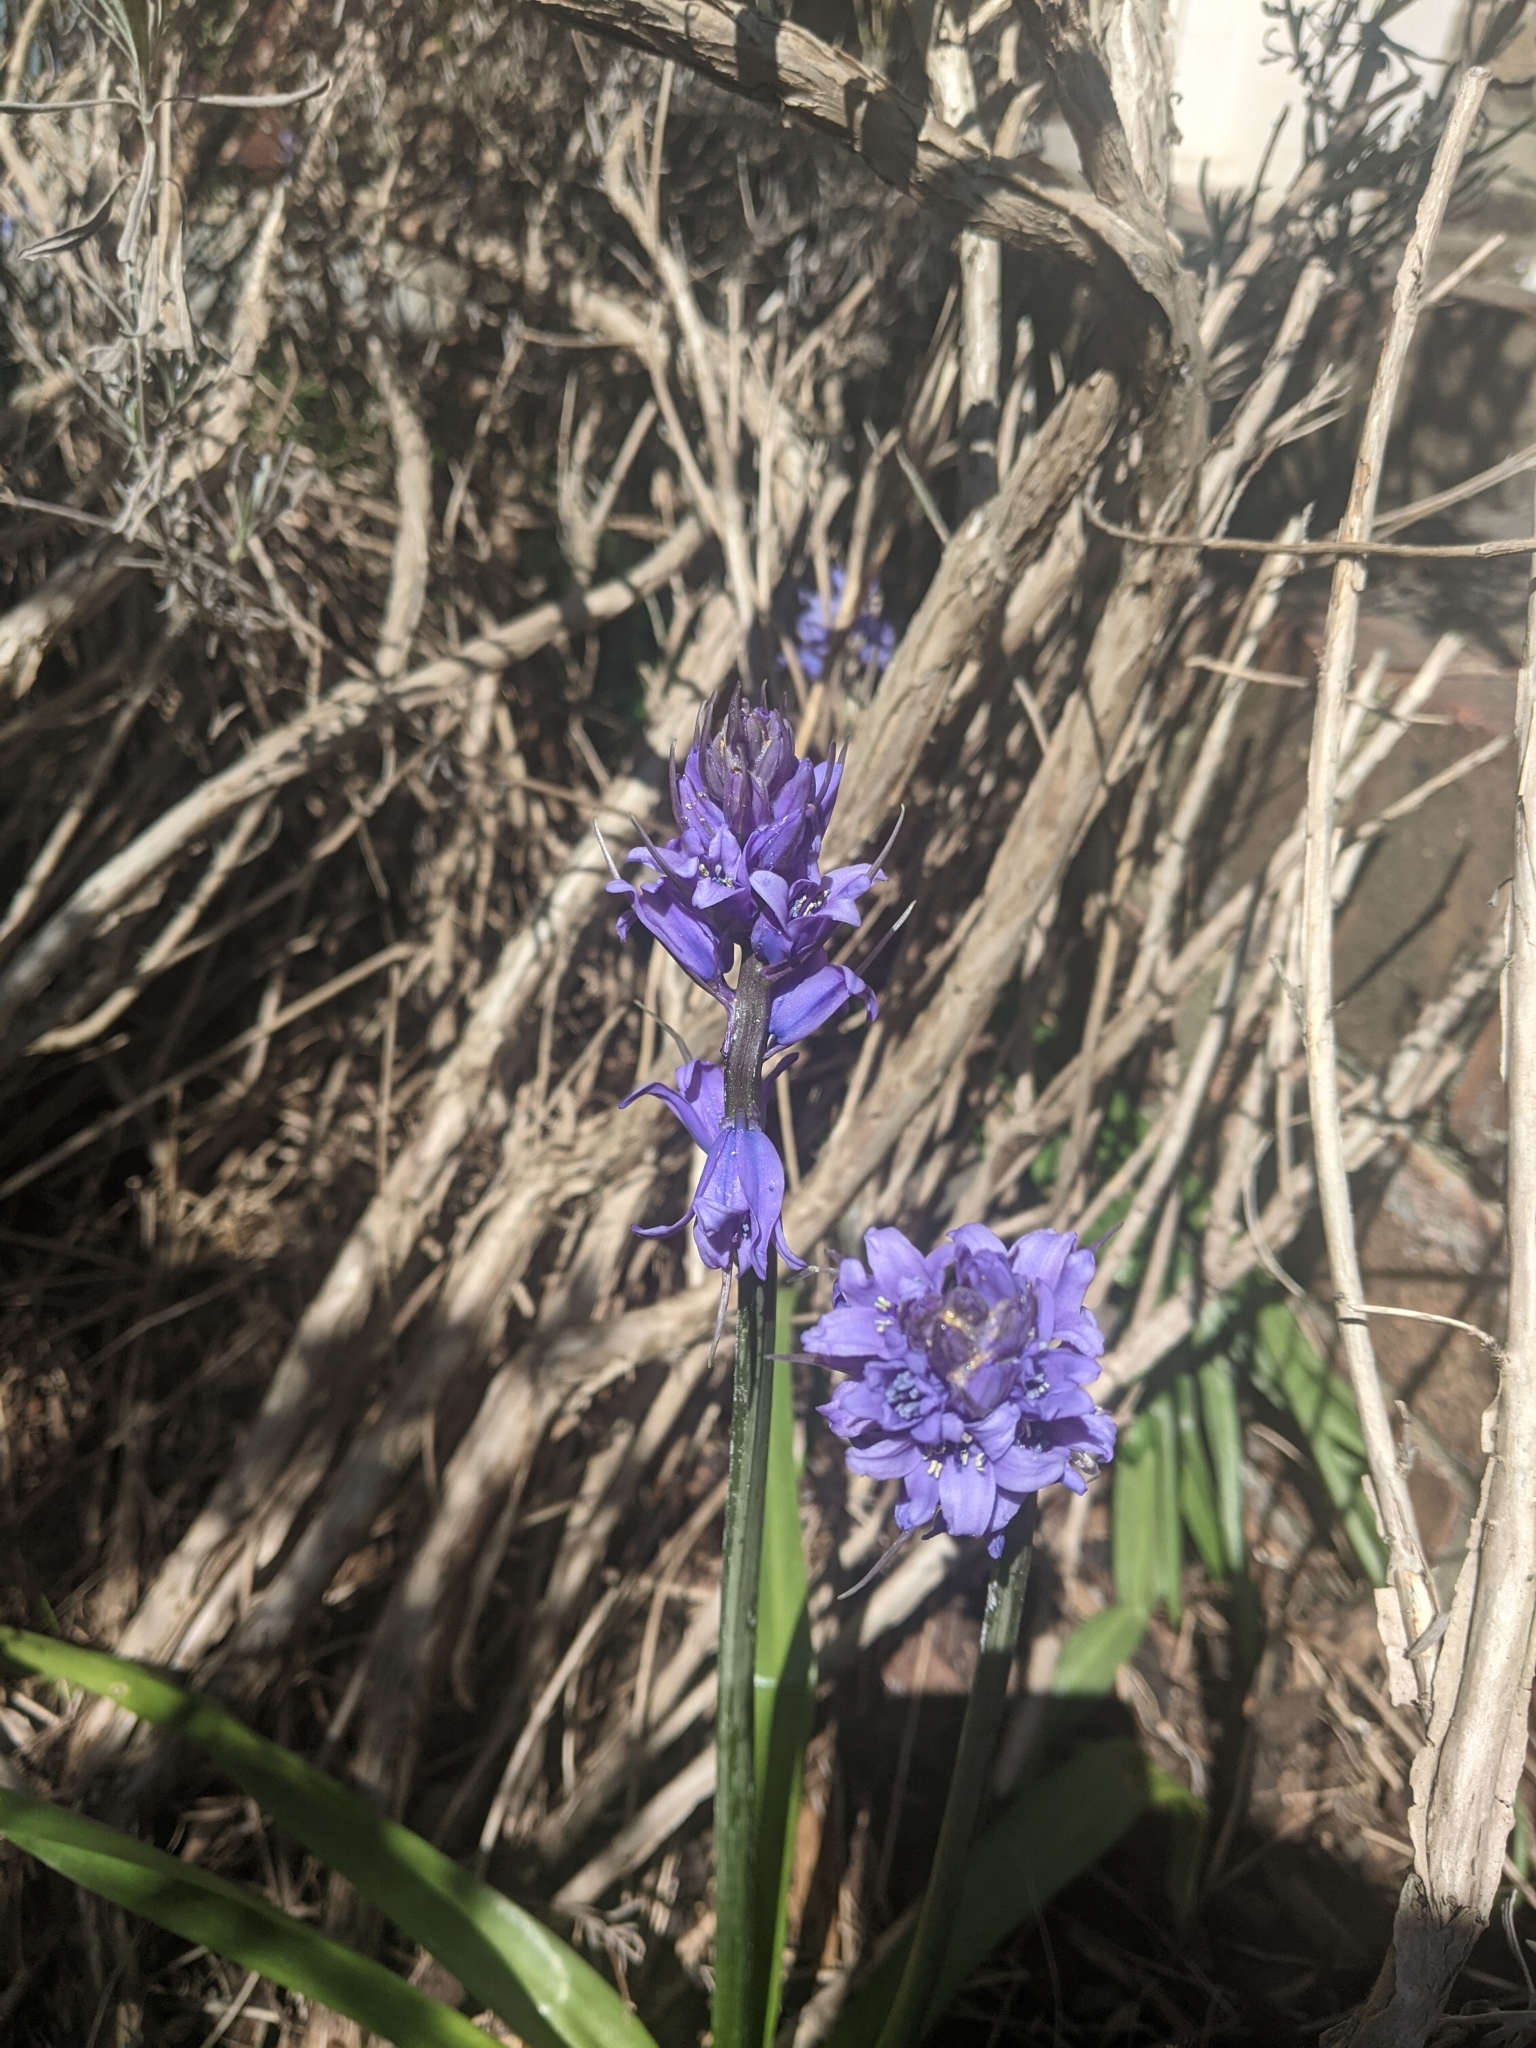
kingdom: Fungi
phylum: Basidiomycota
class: Pucciniomycetes
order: Pucciniales
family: Pucciniaceae
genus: Uromyces
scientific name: Uromyces hyacinthi
